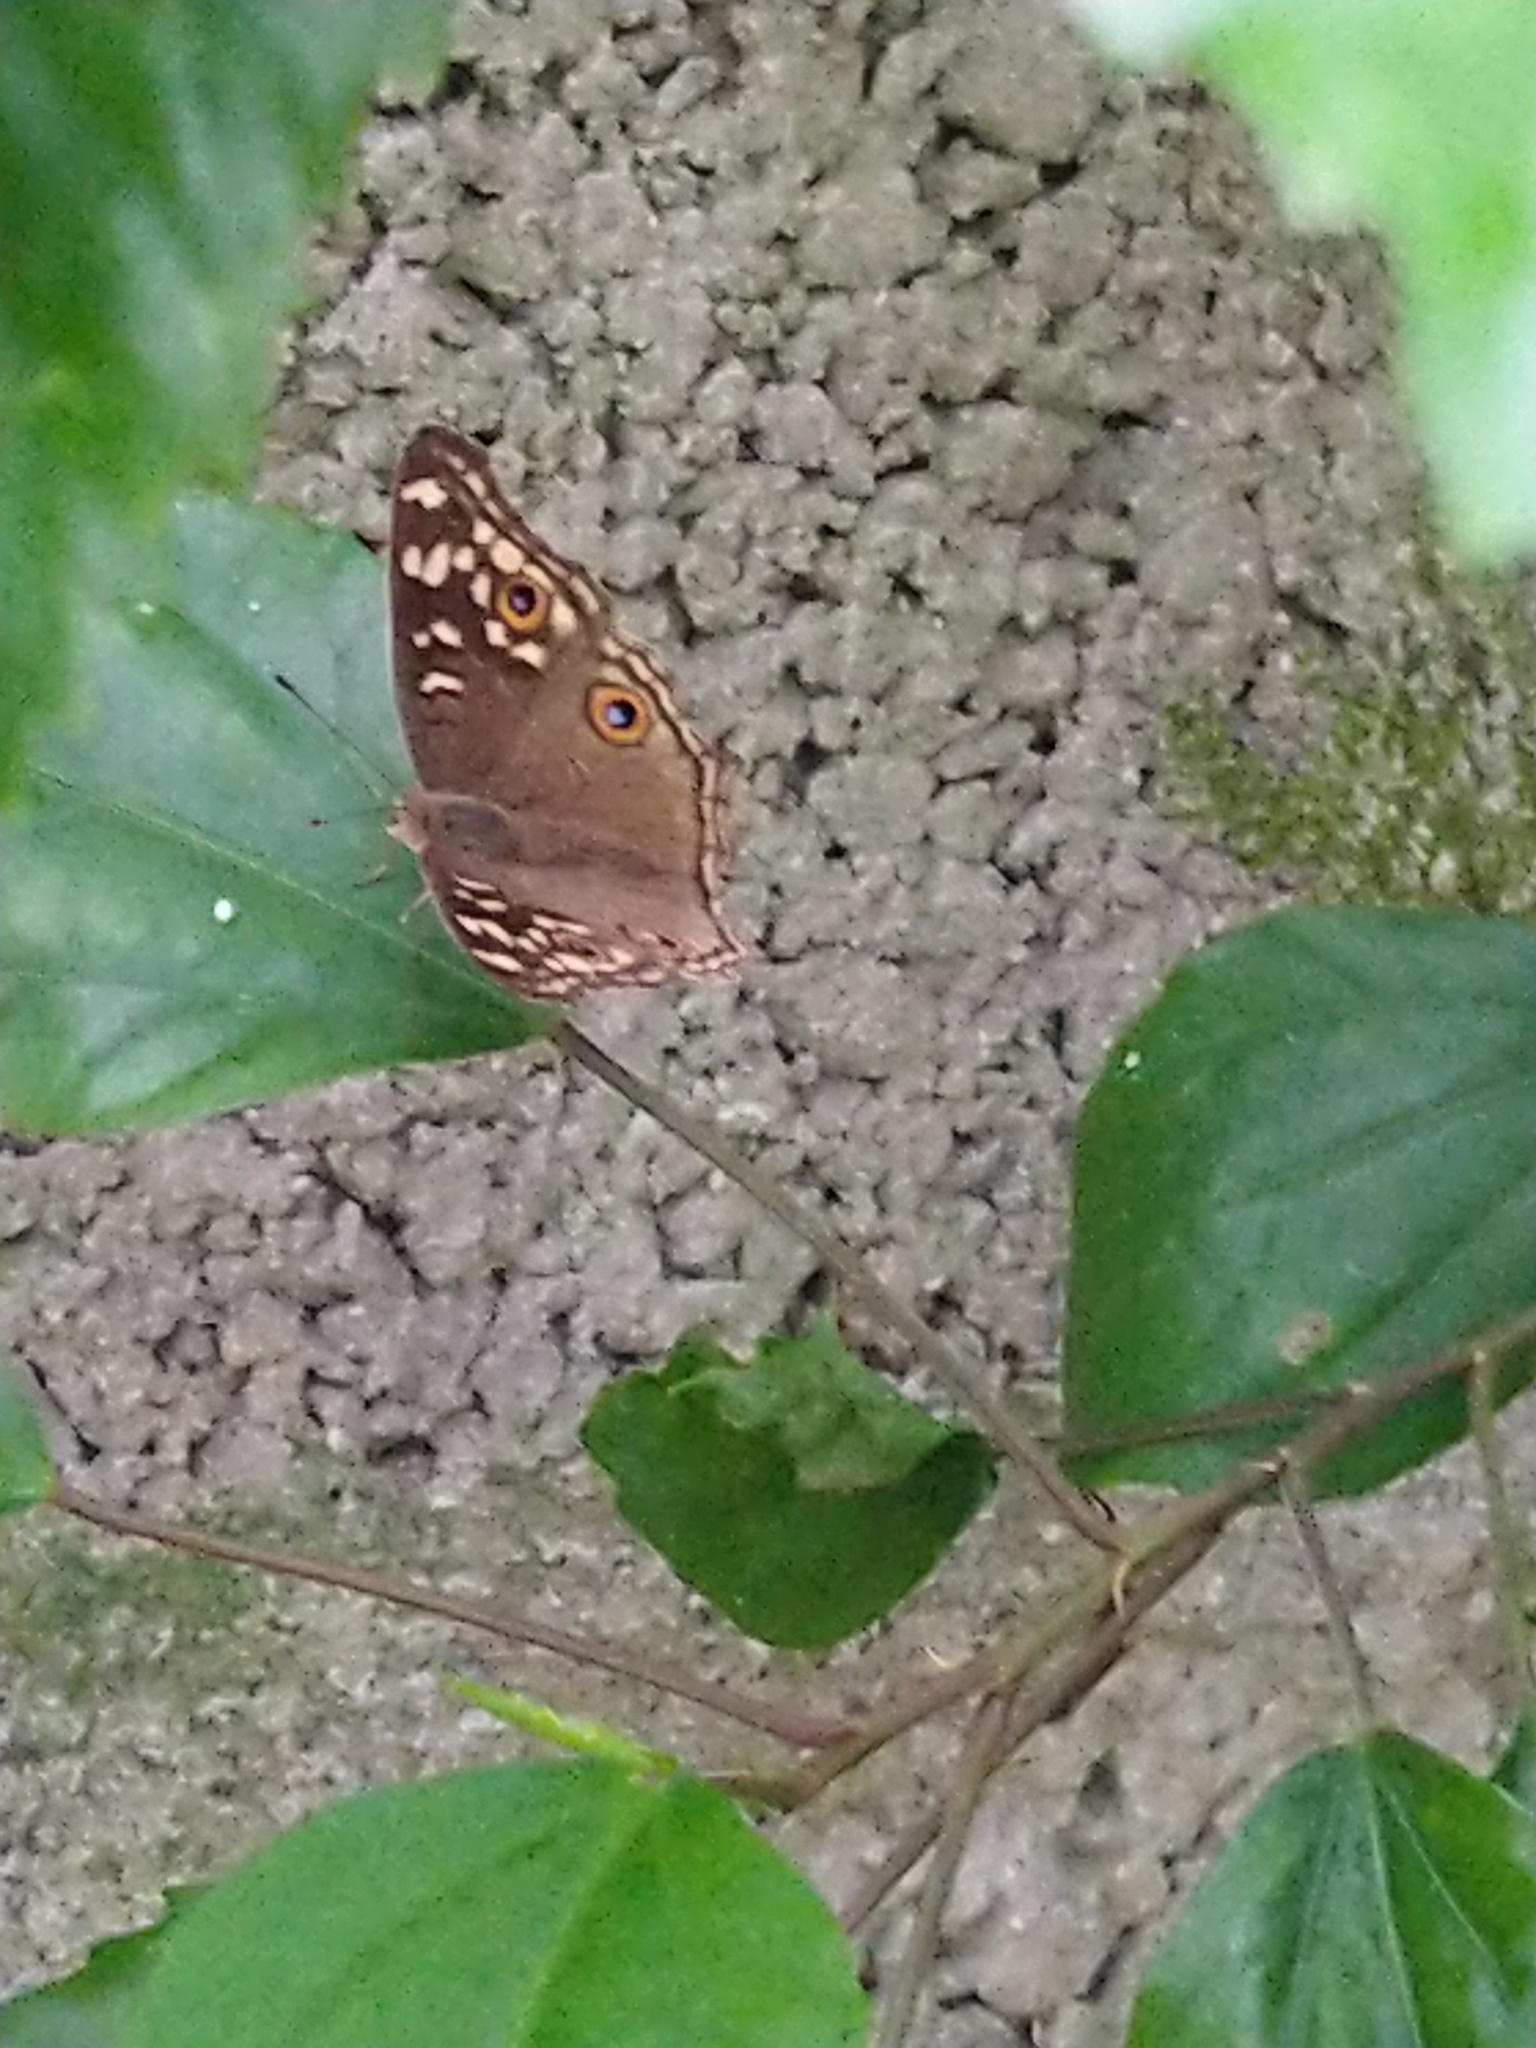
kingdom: Animalia
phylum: Arthropoda
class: Insecta
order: Lepidoptera
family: Nymphalidae
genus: Junonia
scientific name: Junonia lemonias
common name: Lemon pansy
